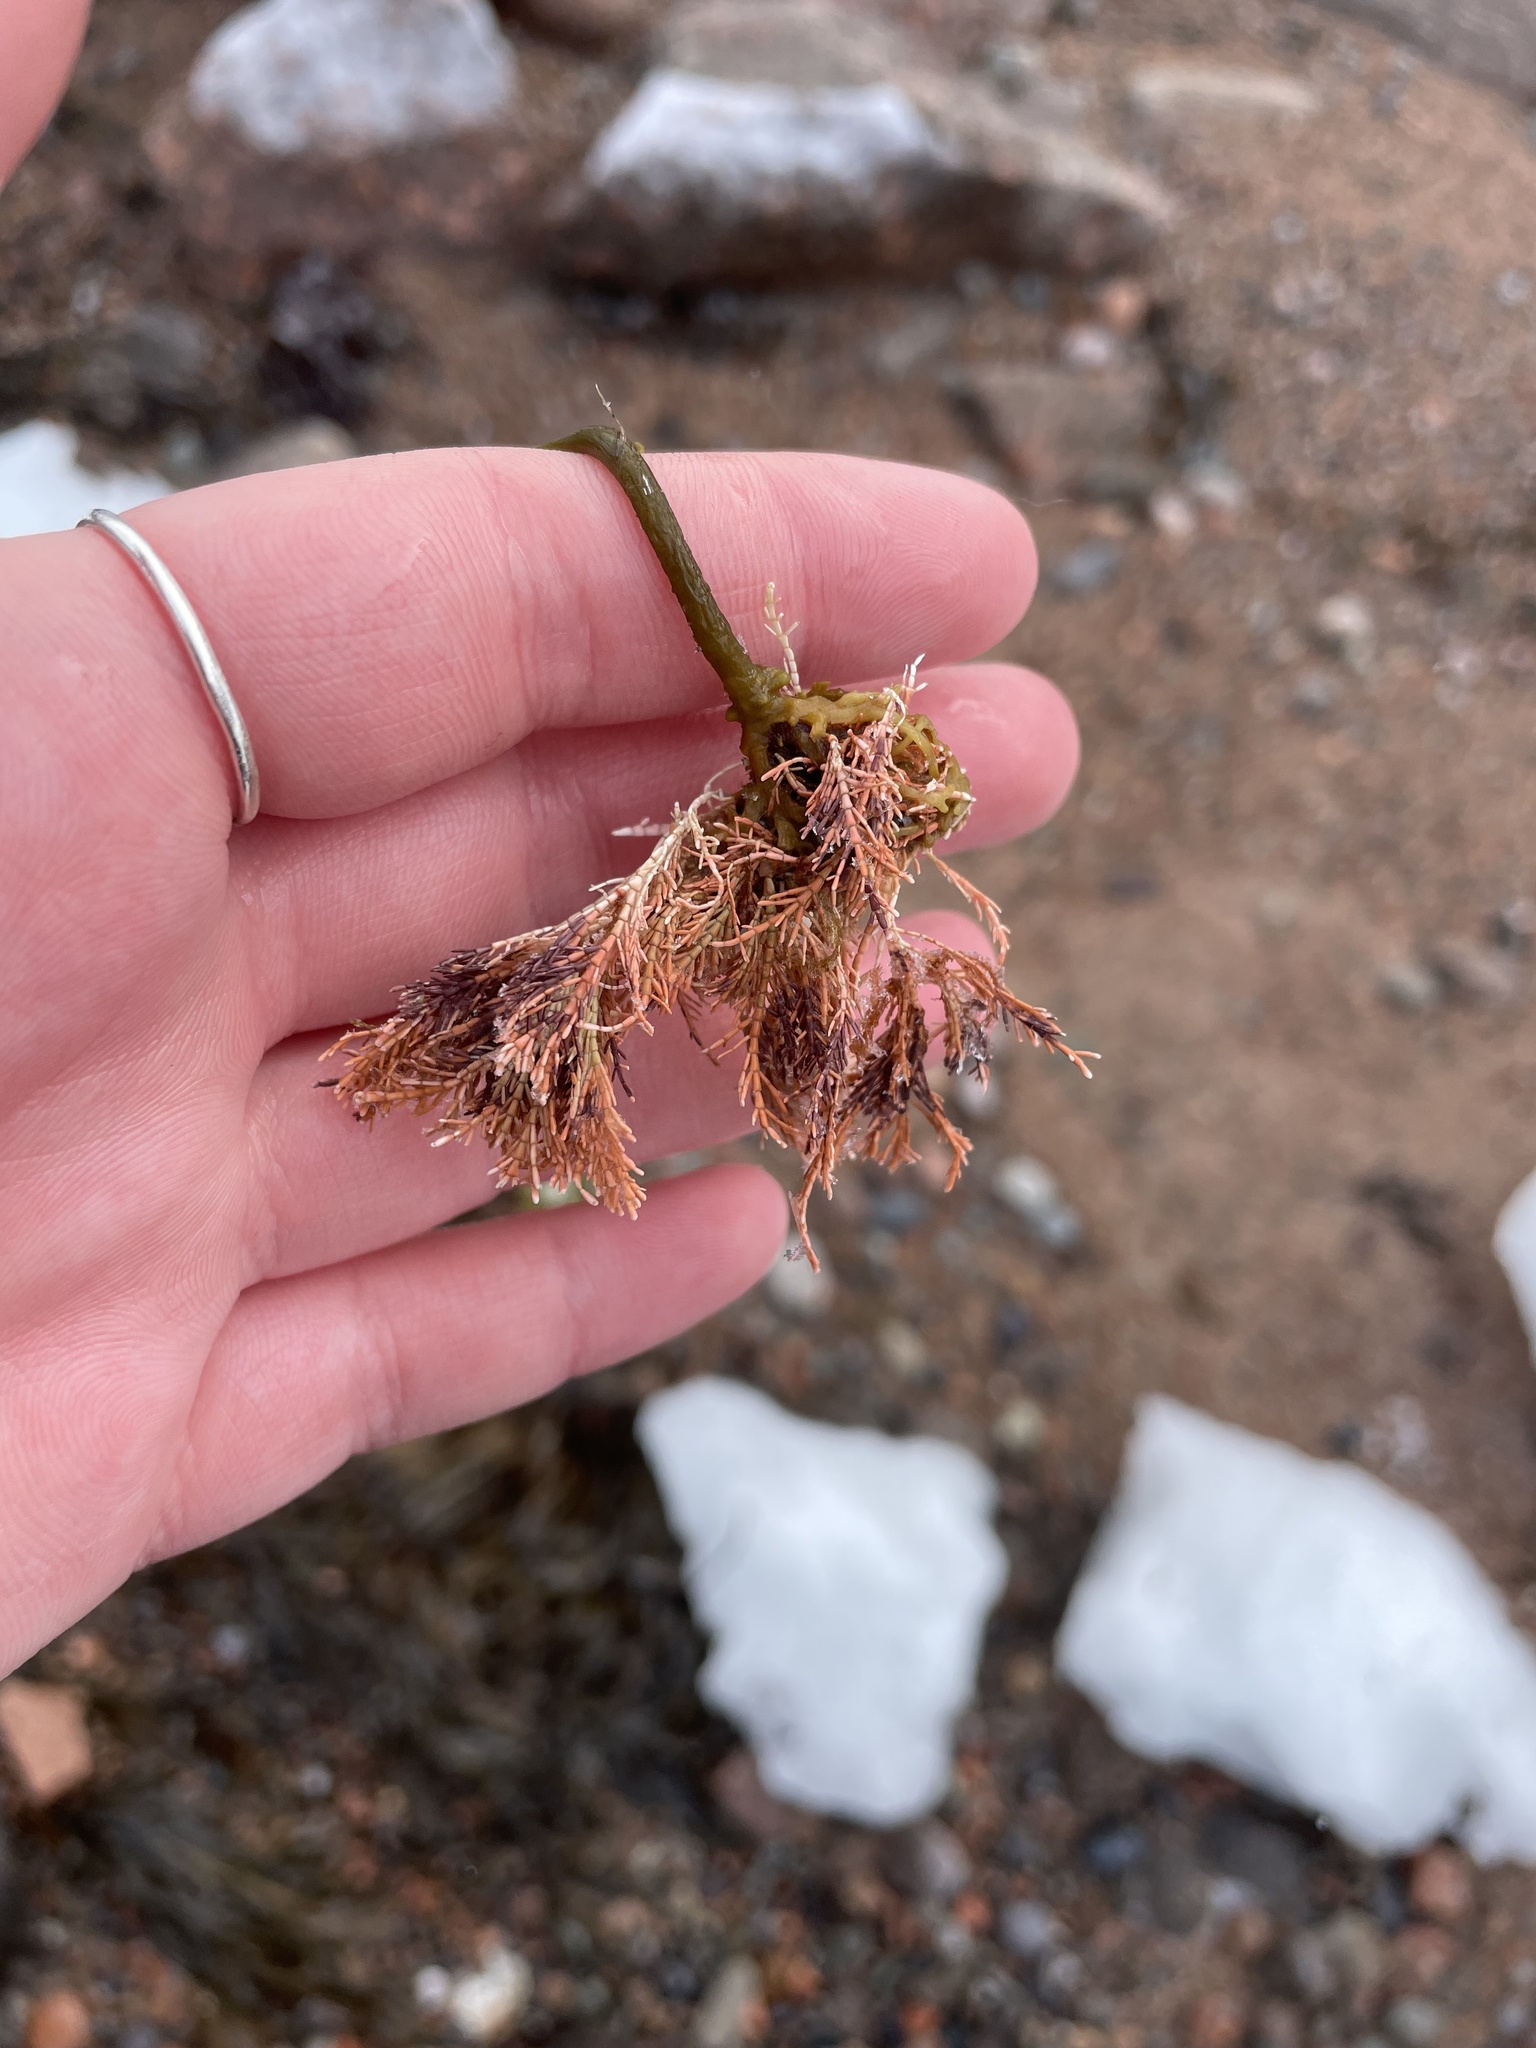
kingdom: Plantae
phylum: Rhodophyta
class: Florideophyceae
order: Corallinales
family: Corallinaceae
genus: Corallina
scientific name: Corallina officinalis
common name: Coral weed
